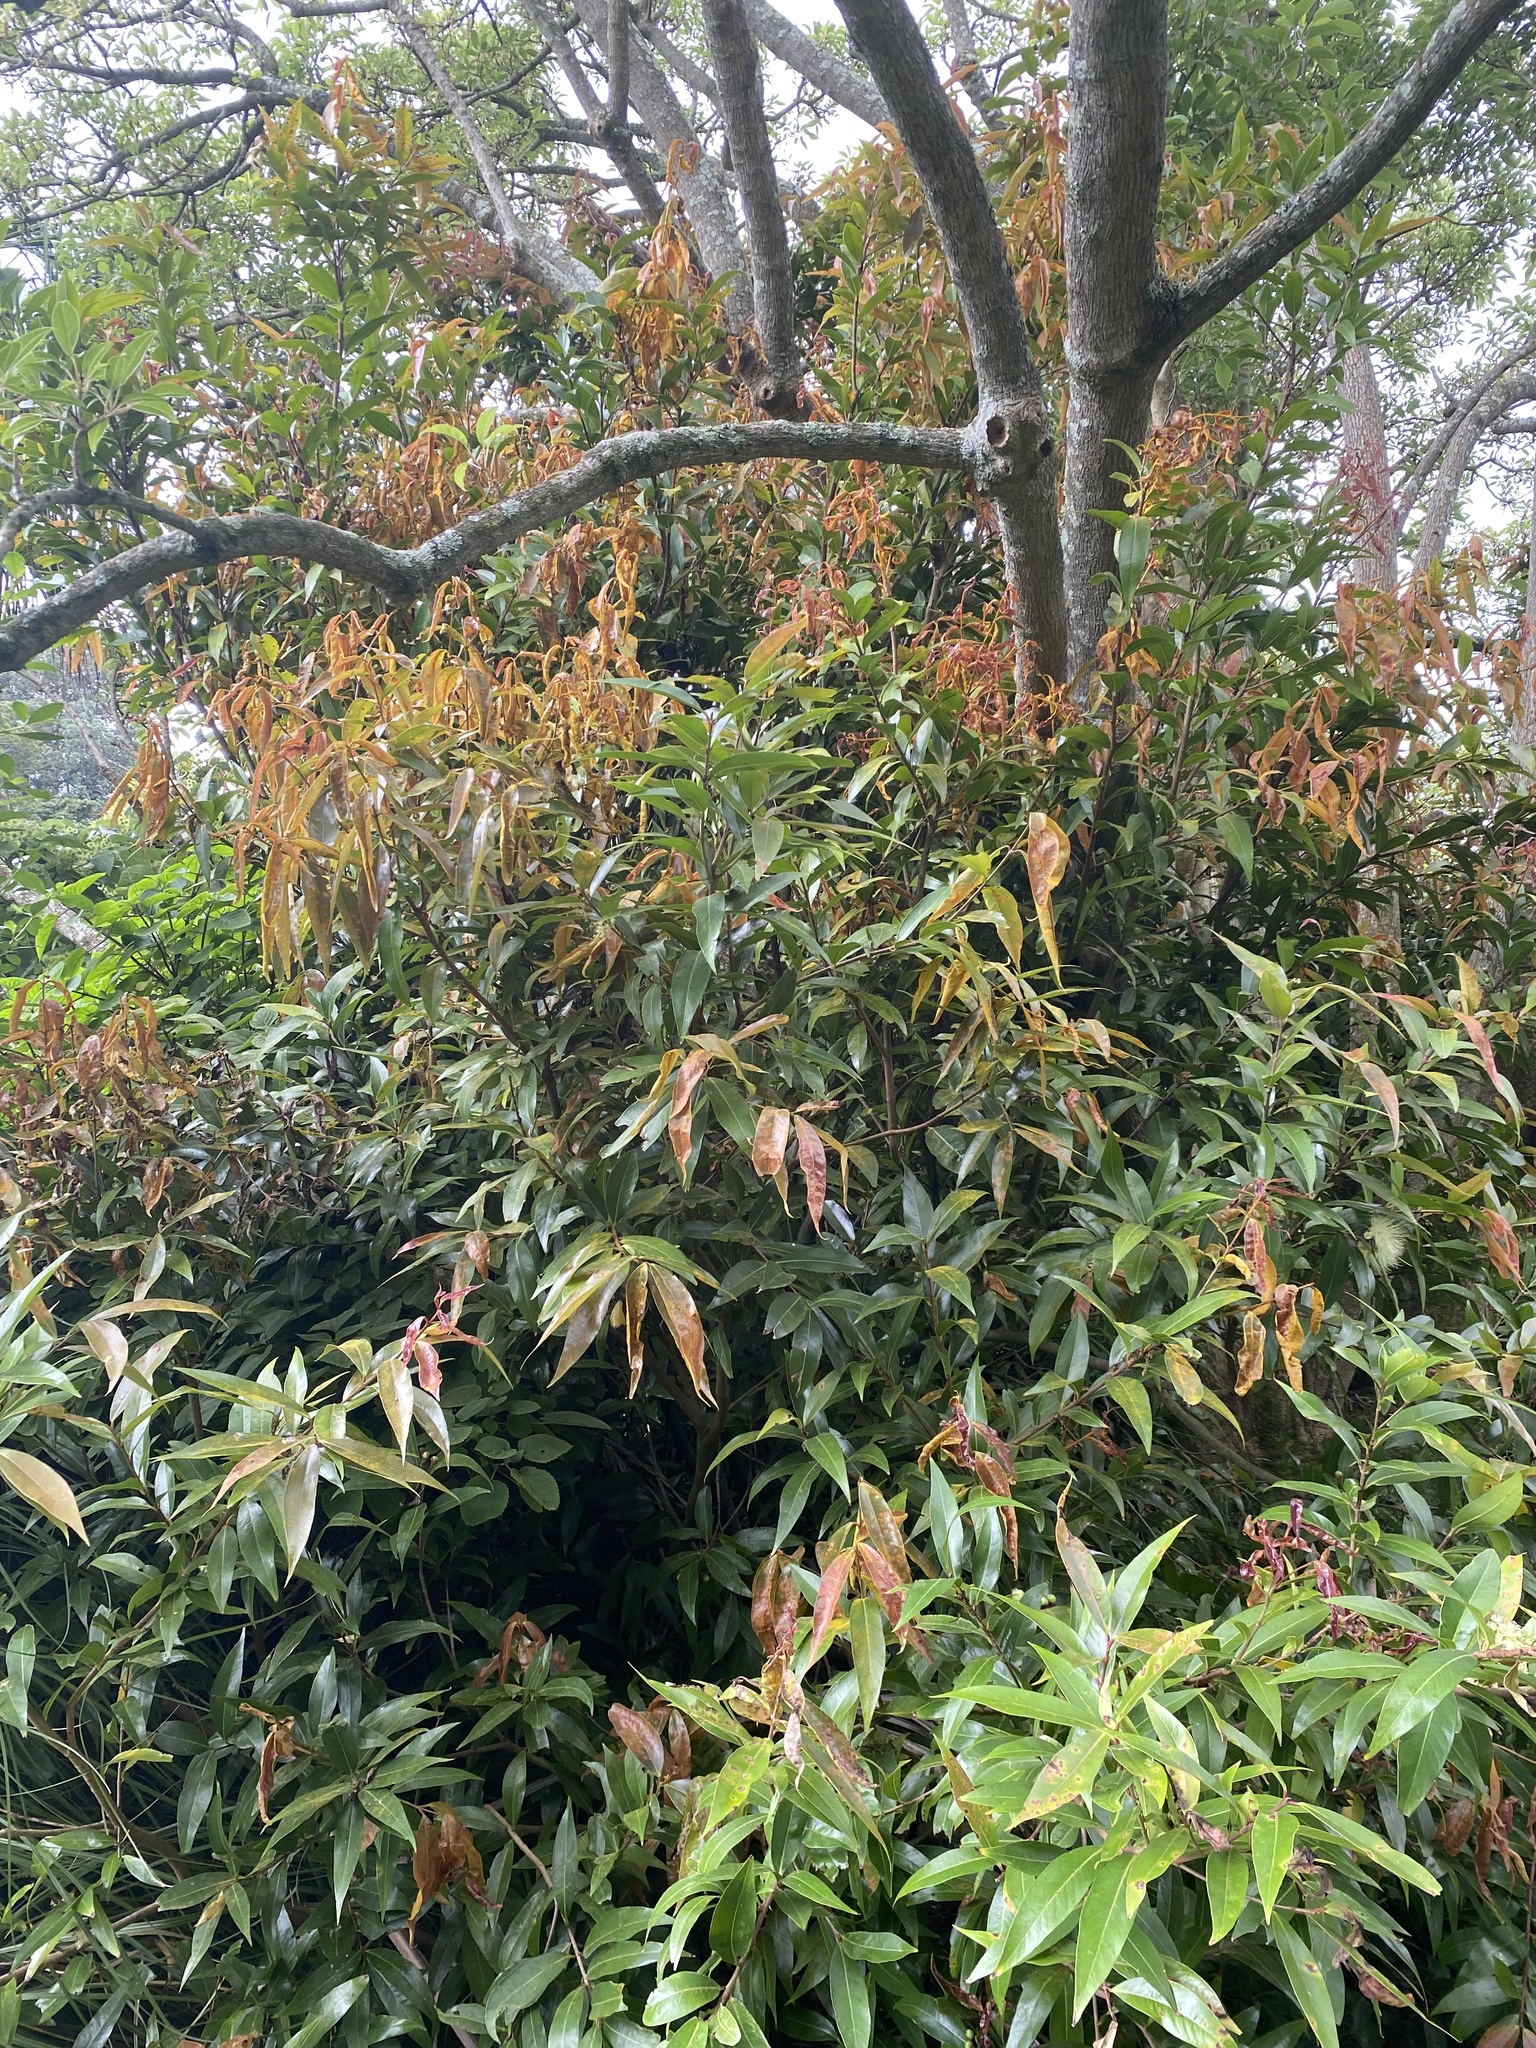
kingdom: Fungi
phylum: Basidiomycota
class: Pucciniomycetes
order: Pucciniales
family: Sphaerophragmiaceae
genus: Austropuccinia
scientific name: Austropuccinia psidii
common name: Myrtle rust
